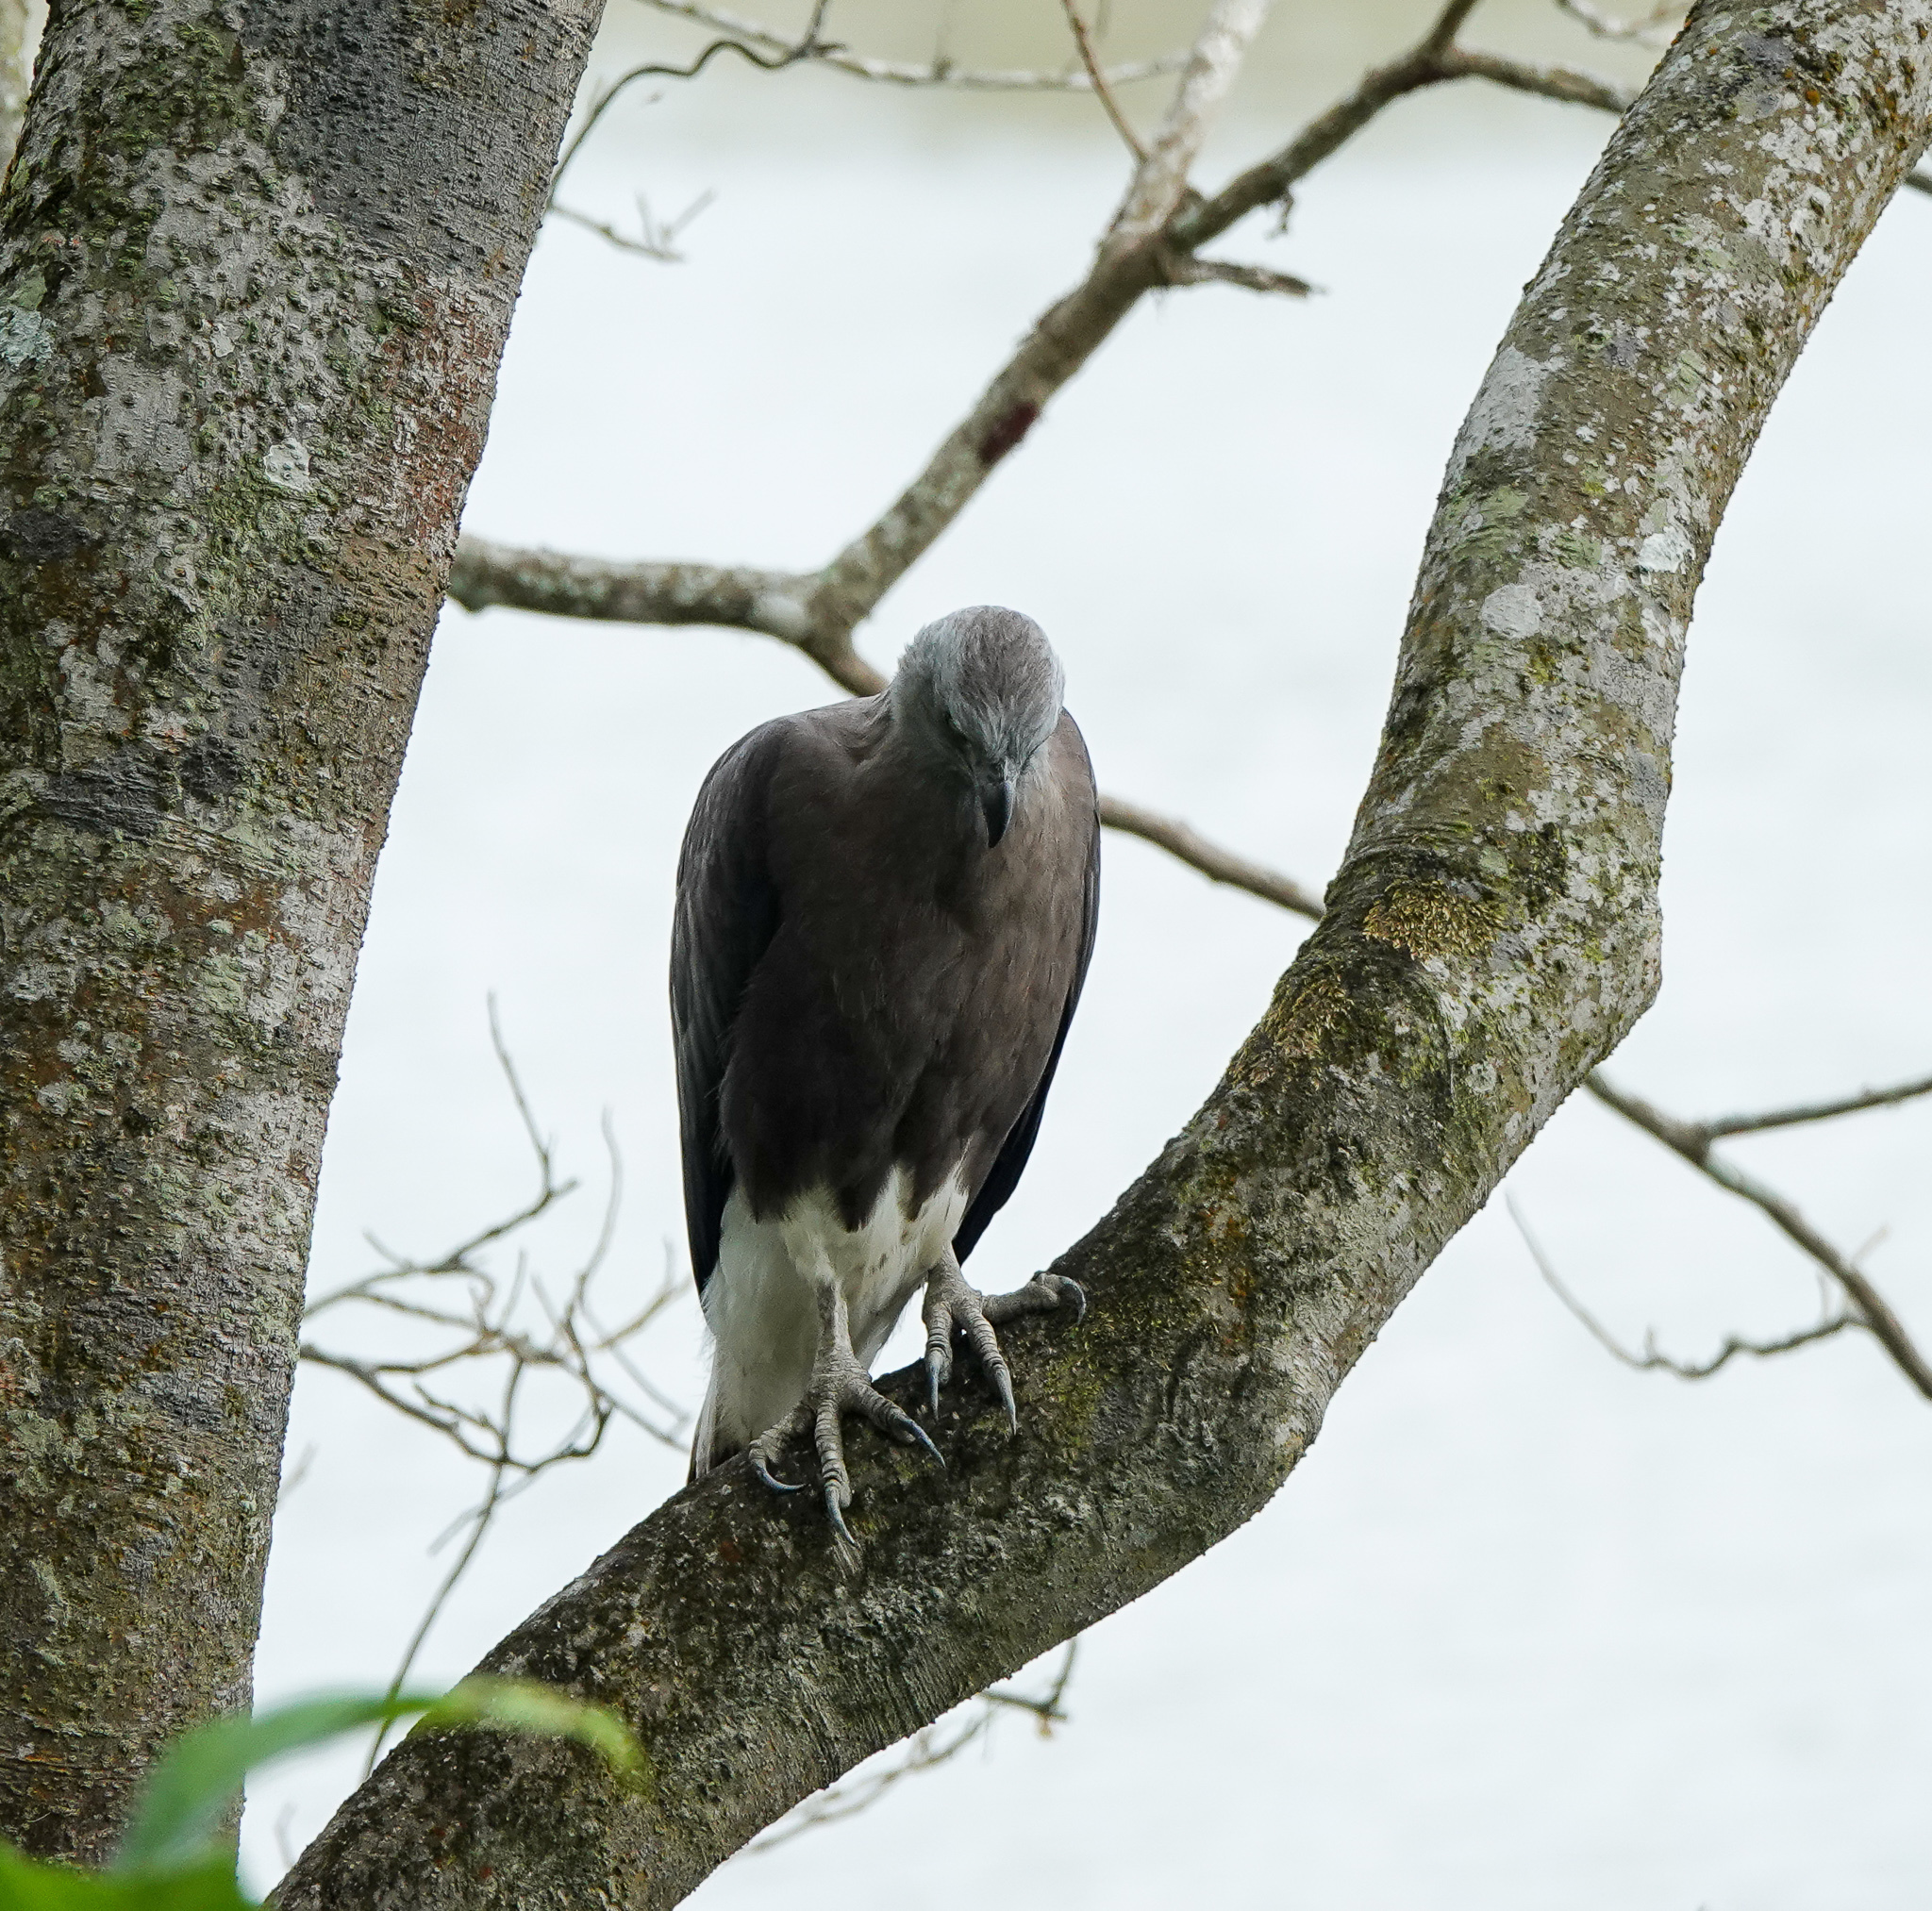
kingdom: Animalia
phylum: Chordata
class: Aves
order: Accipitriformes
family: Accipitridae
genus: Icthyophaga
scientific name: Icthyophaga ichthyaetus
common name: Grey-headed fish eagle
